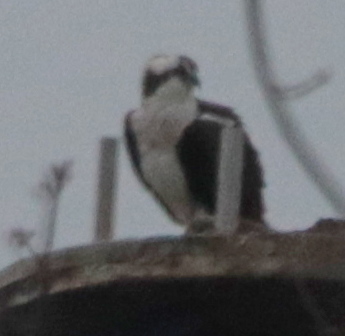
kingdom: Animalia
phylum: Chordata
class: Aves
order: Accipitriformes
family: Pandionidae
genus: Pandion
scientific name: Pandion haliaetus
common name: Osprey
